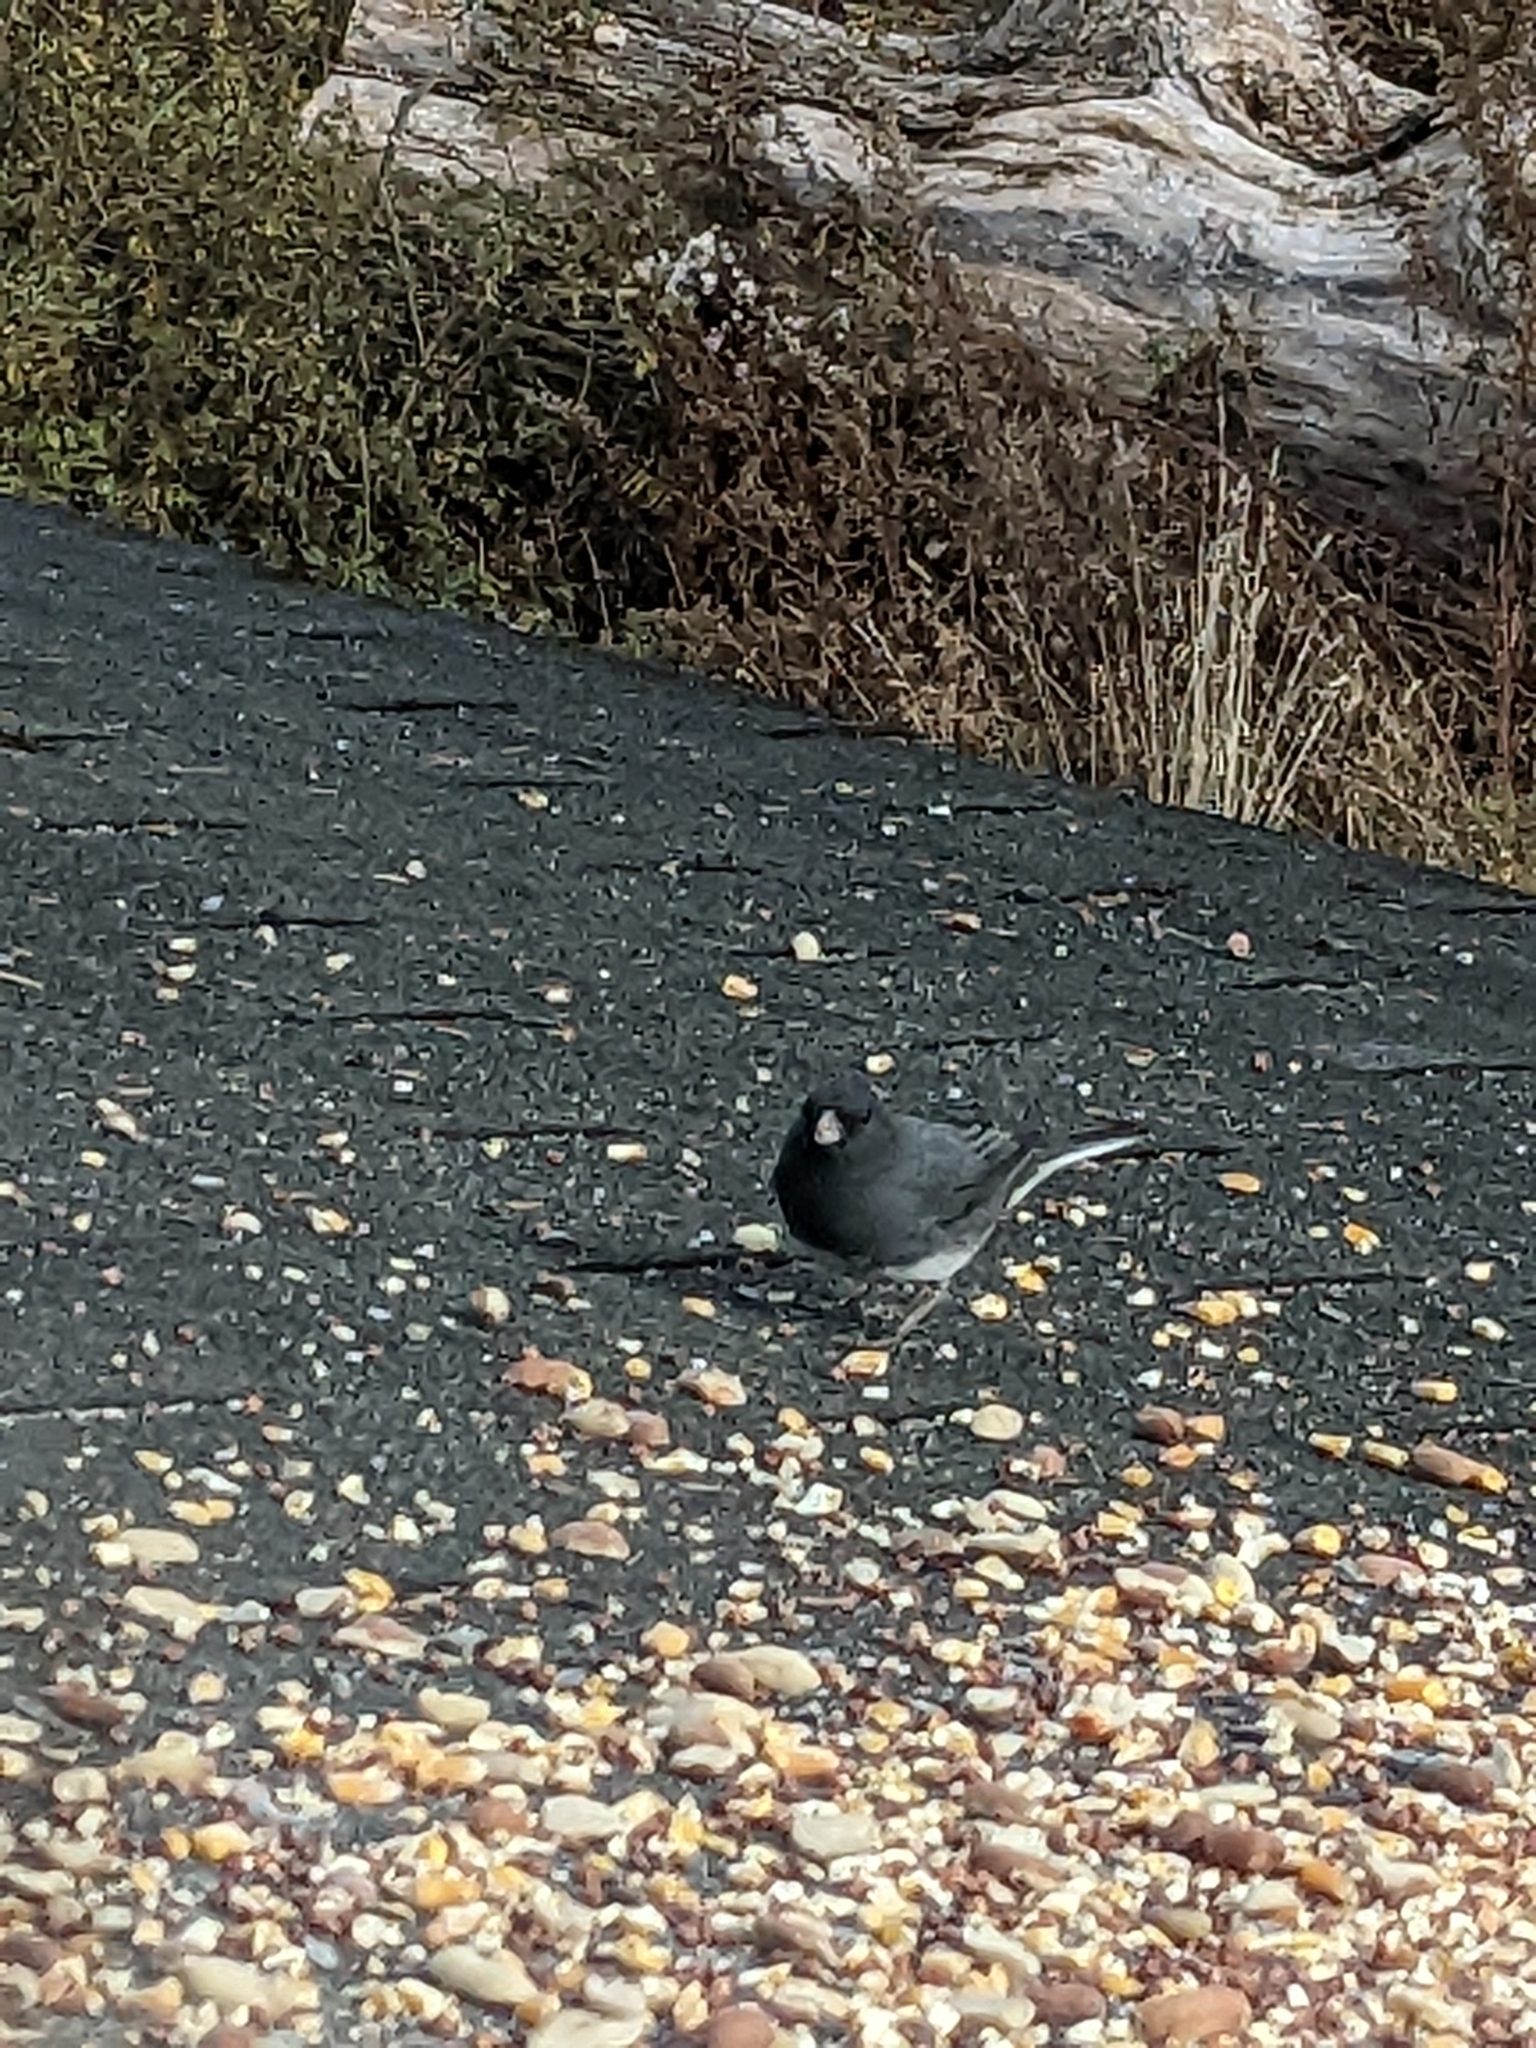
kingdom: Animalia
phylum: Chordata
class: Aves
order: Passeriformes
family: Passerellidae
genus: Junco
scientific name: Junco hyemalis
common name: Dark-eyed junco
